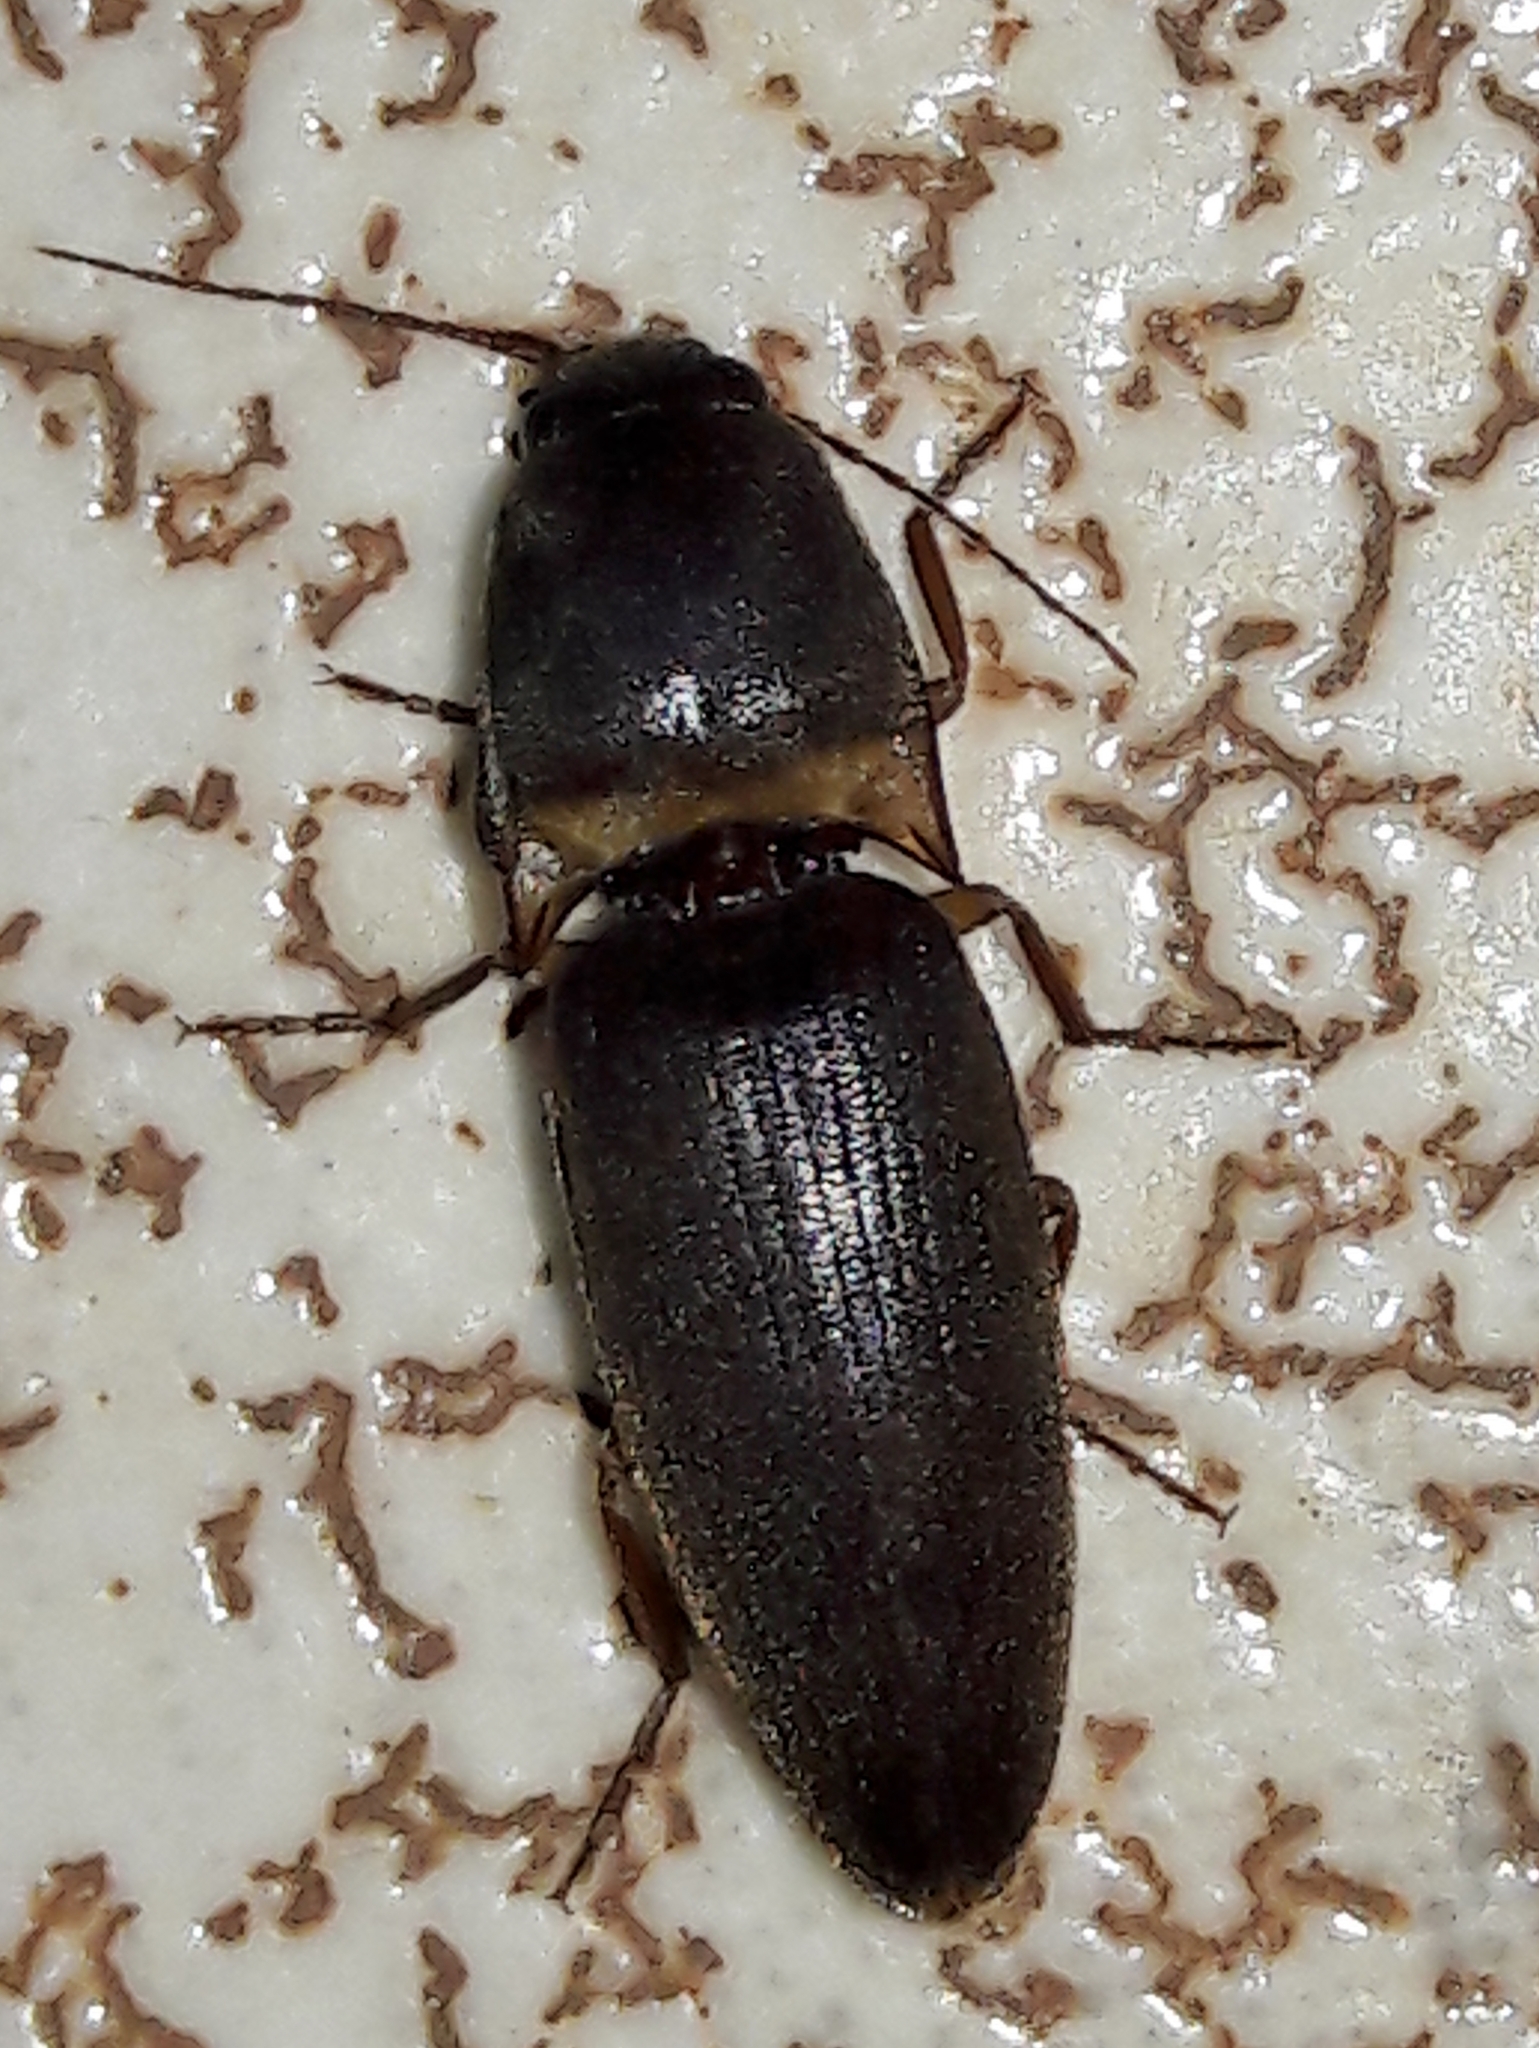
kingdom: Animalia
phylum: Arthropoda
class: Insecta
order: Coleoptera
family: Elateridae
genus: Monocrepidius
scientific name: Monocrepidius
